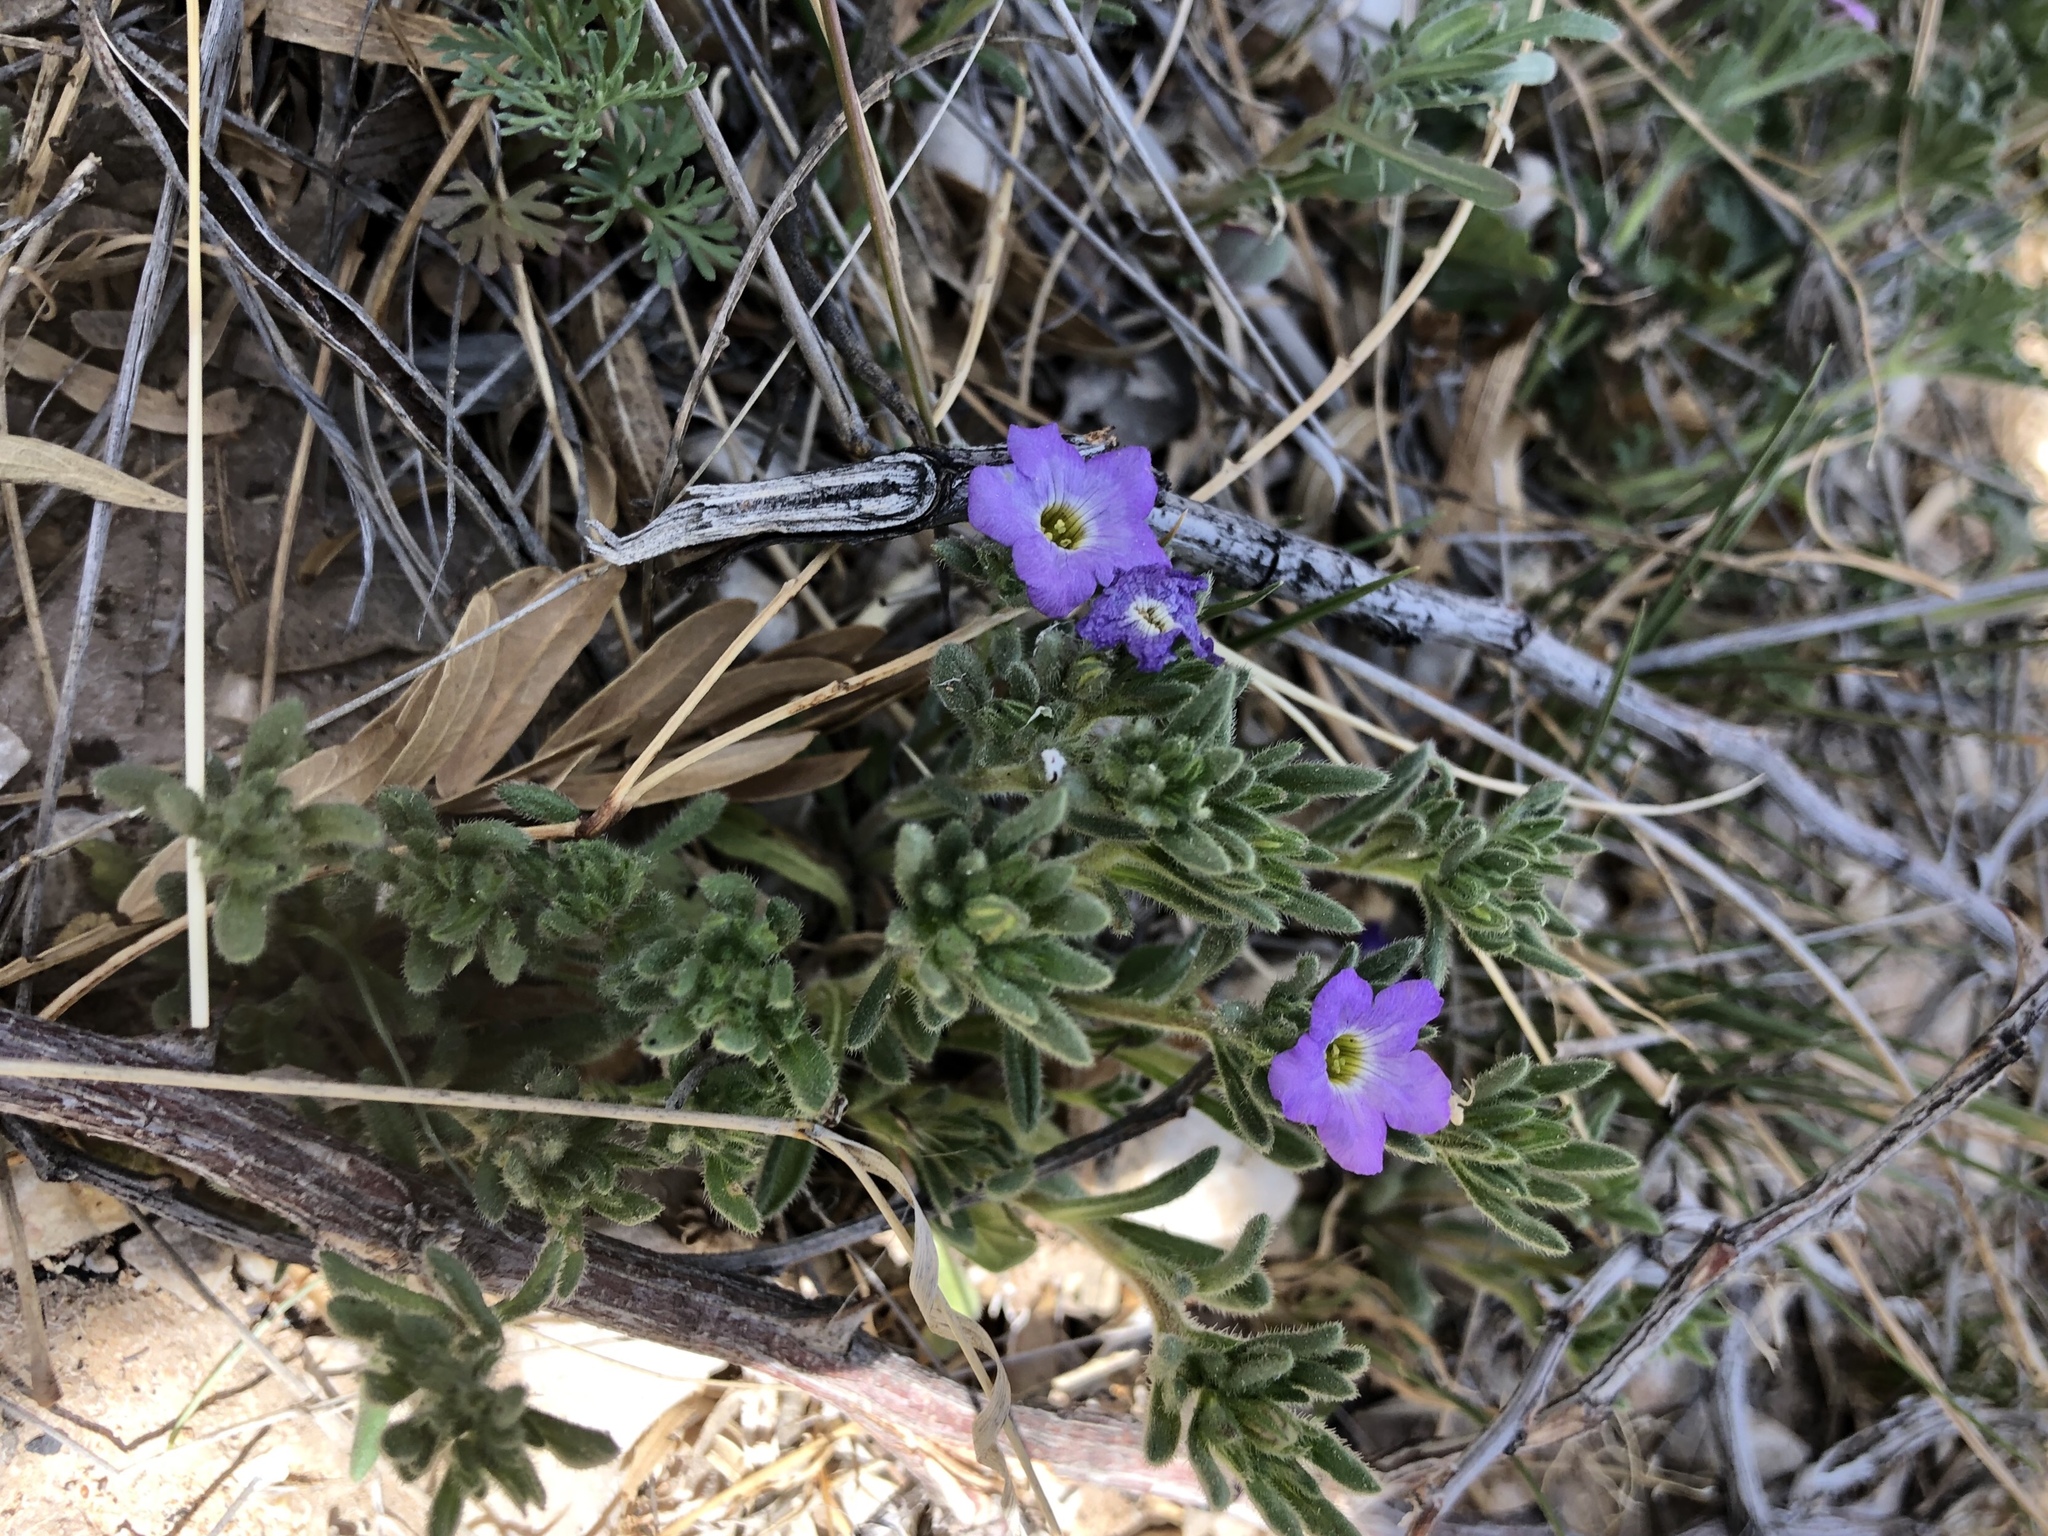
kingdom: Plantae
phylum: Tracheophyta
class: Magnoliopsida
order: Boraginales
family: Namaceae
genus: Nama
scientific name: Nama hispida
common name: Bristly nama
